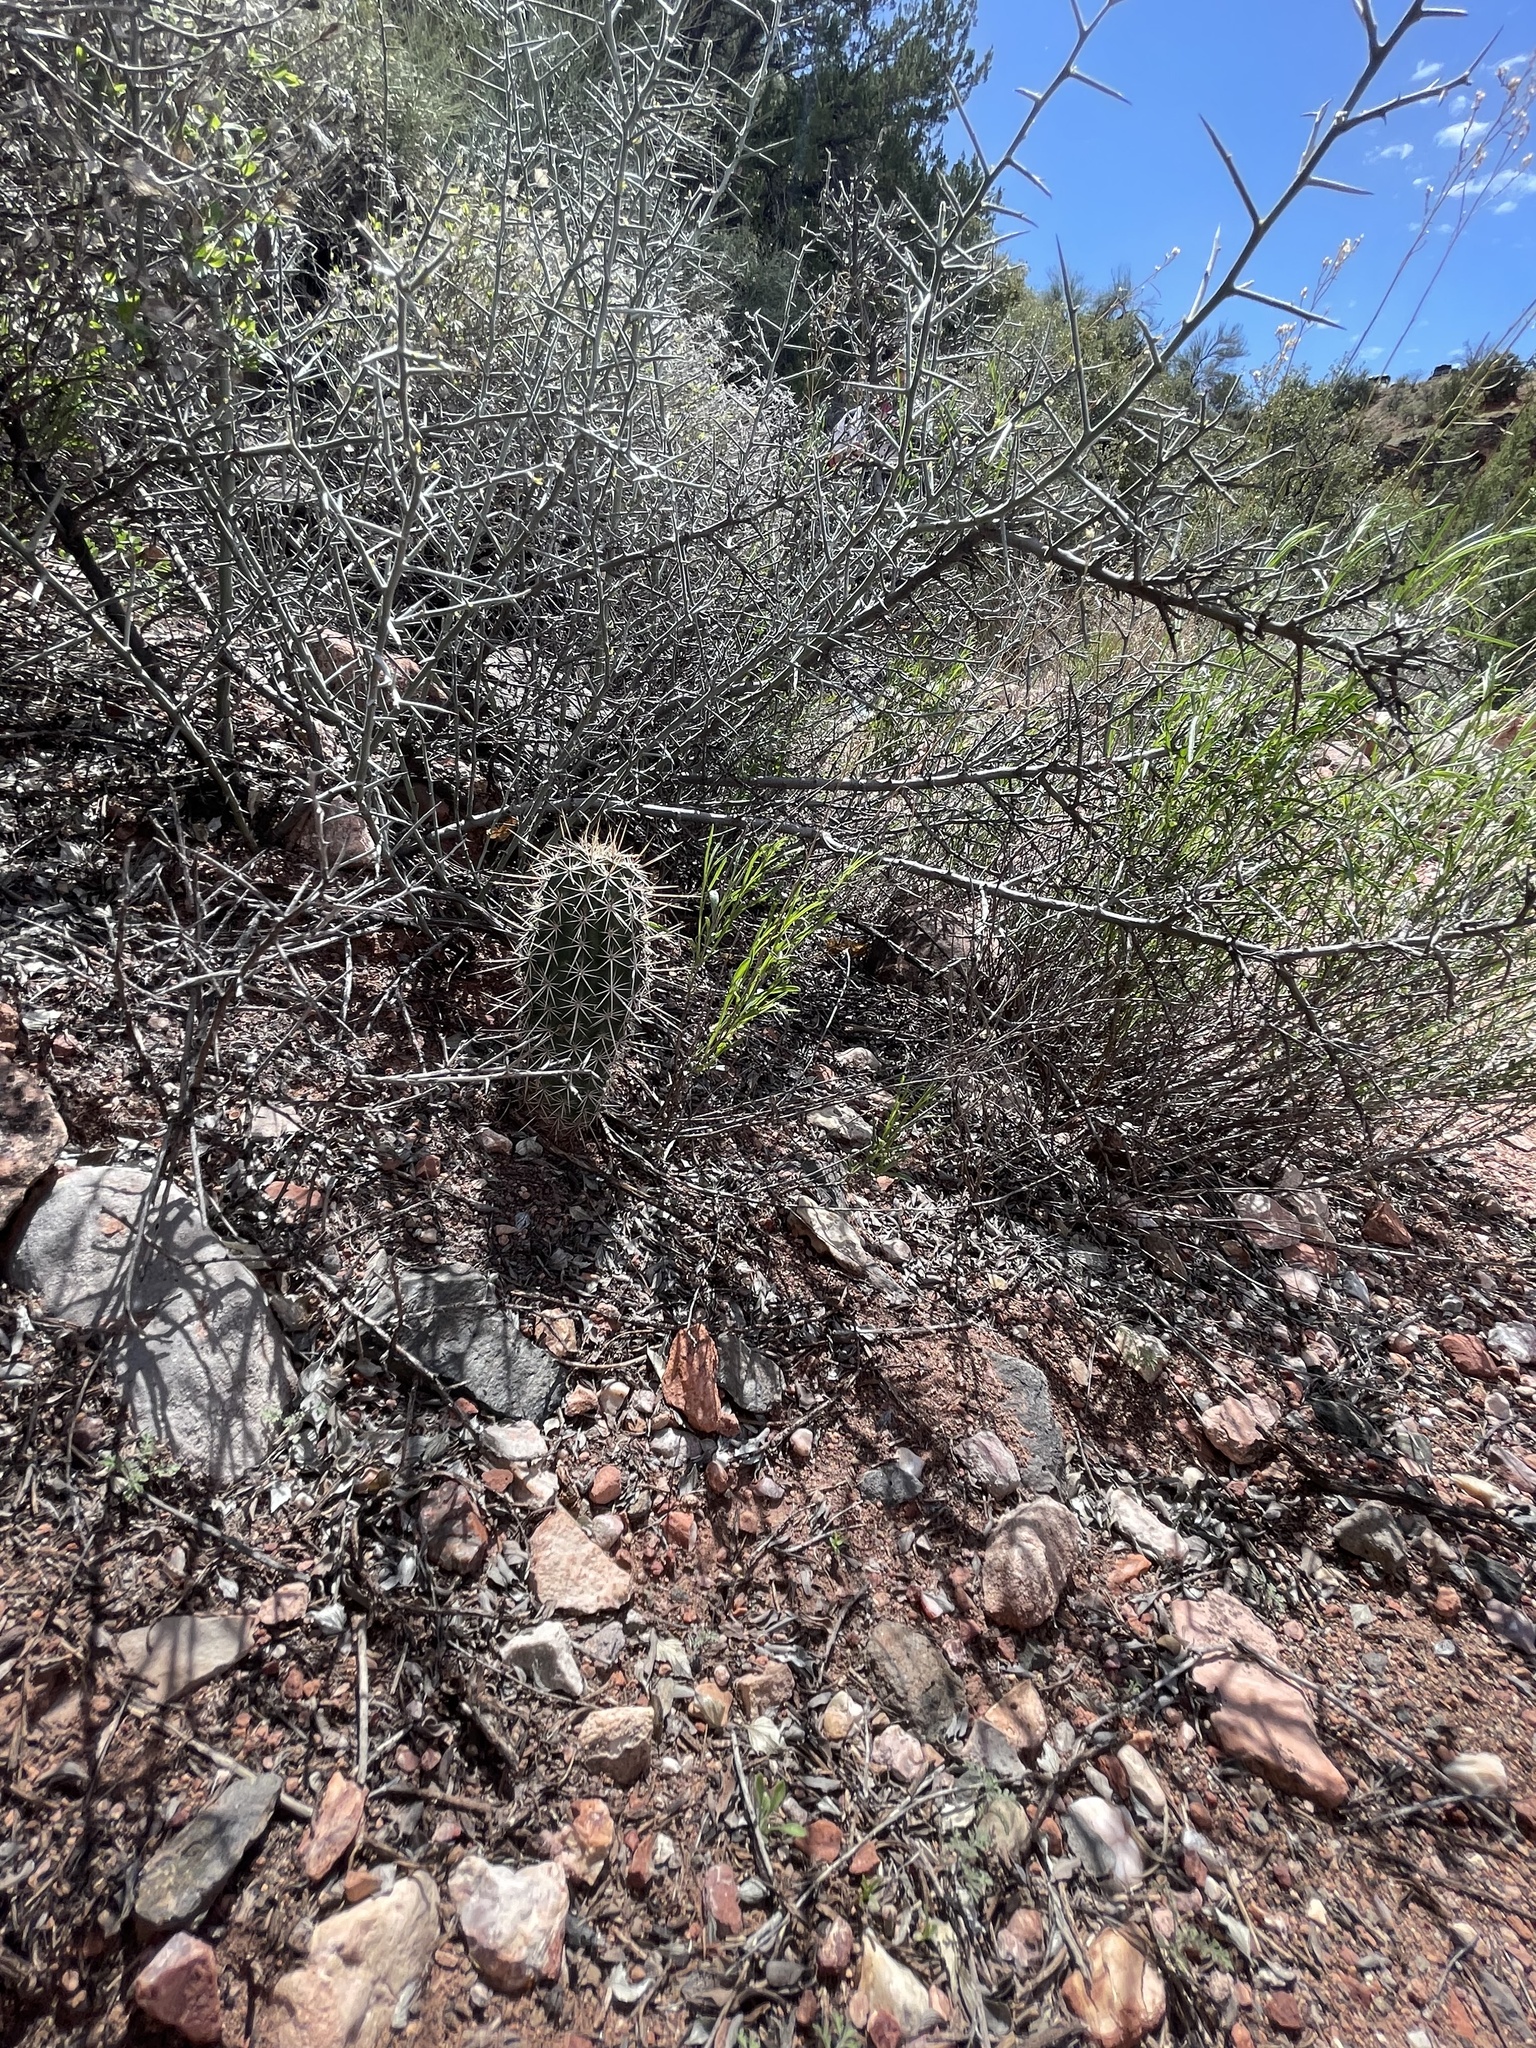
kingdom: Plantae
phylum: Tracheophyta
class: Magnoliopsida
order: Caryophyllales
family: Cactaceae
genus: Echinocereus
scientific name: Echinocereus fasciculatus
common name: Bundle hedgehog
